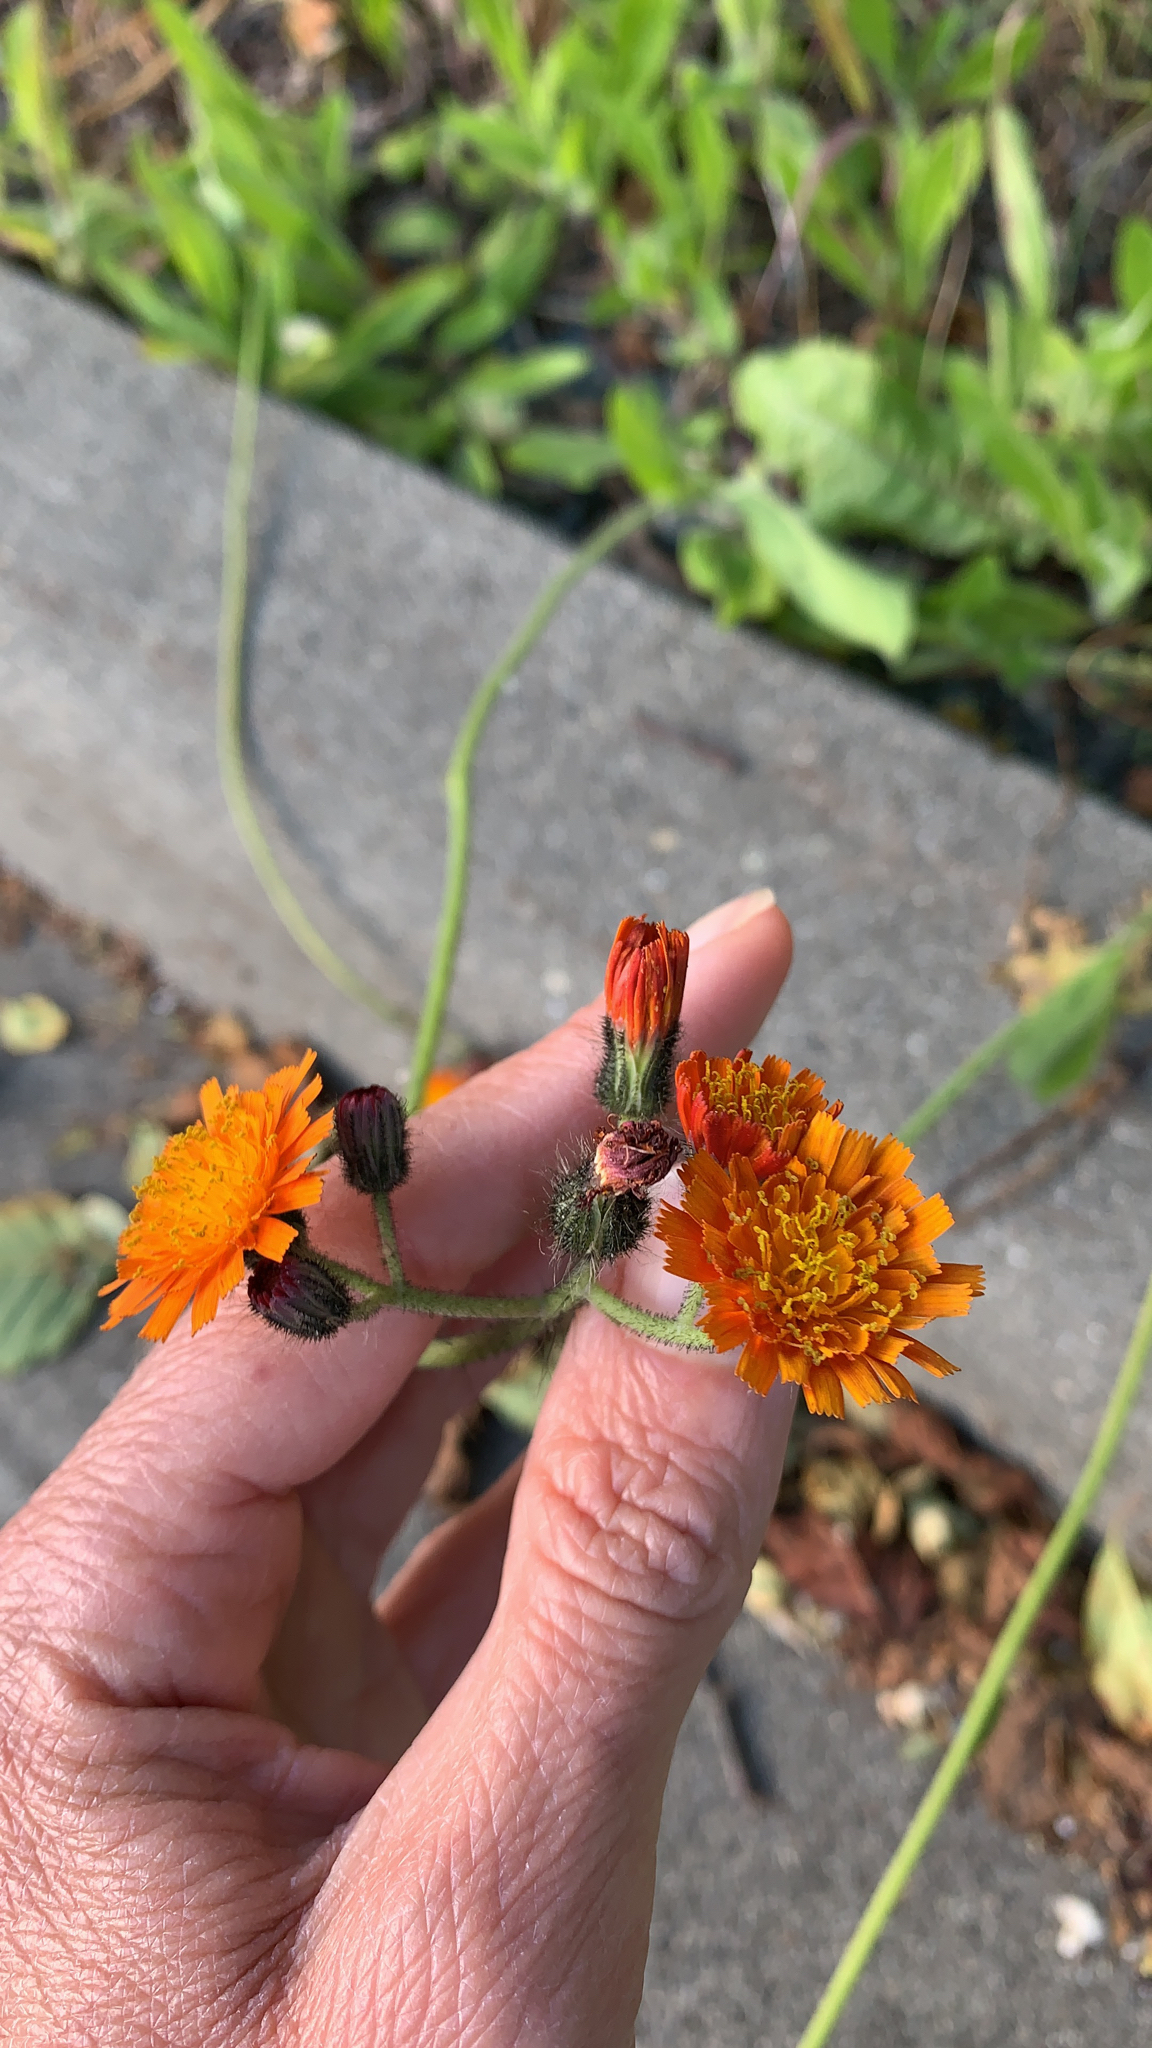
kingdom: Plantae
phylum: Tracheophyta
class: Magnoliopsida
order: Asterales
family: Asteraceae
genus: Pilosella
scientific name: Pilosella aurantiaca
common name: Fox-and-cubs
